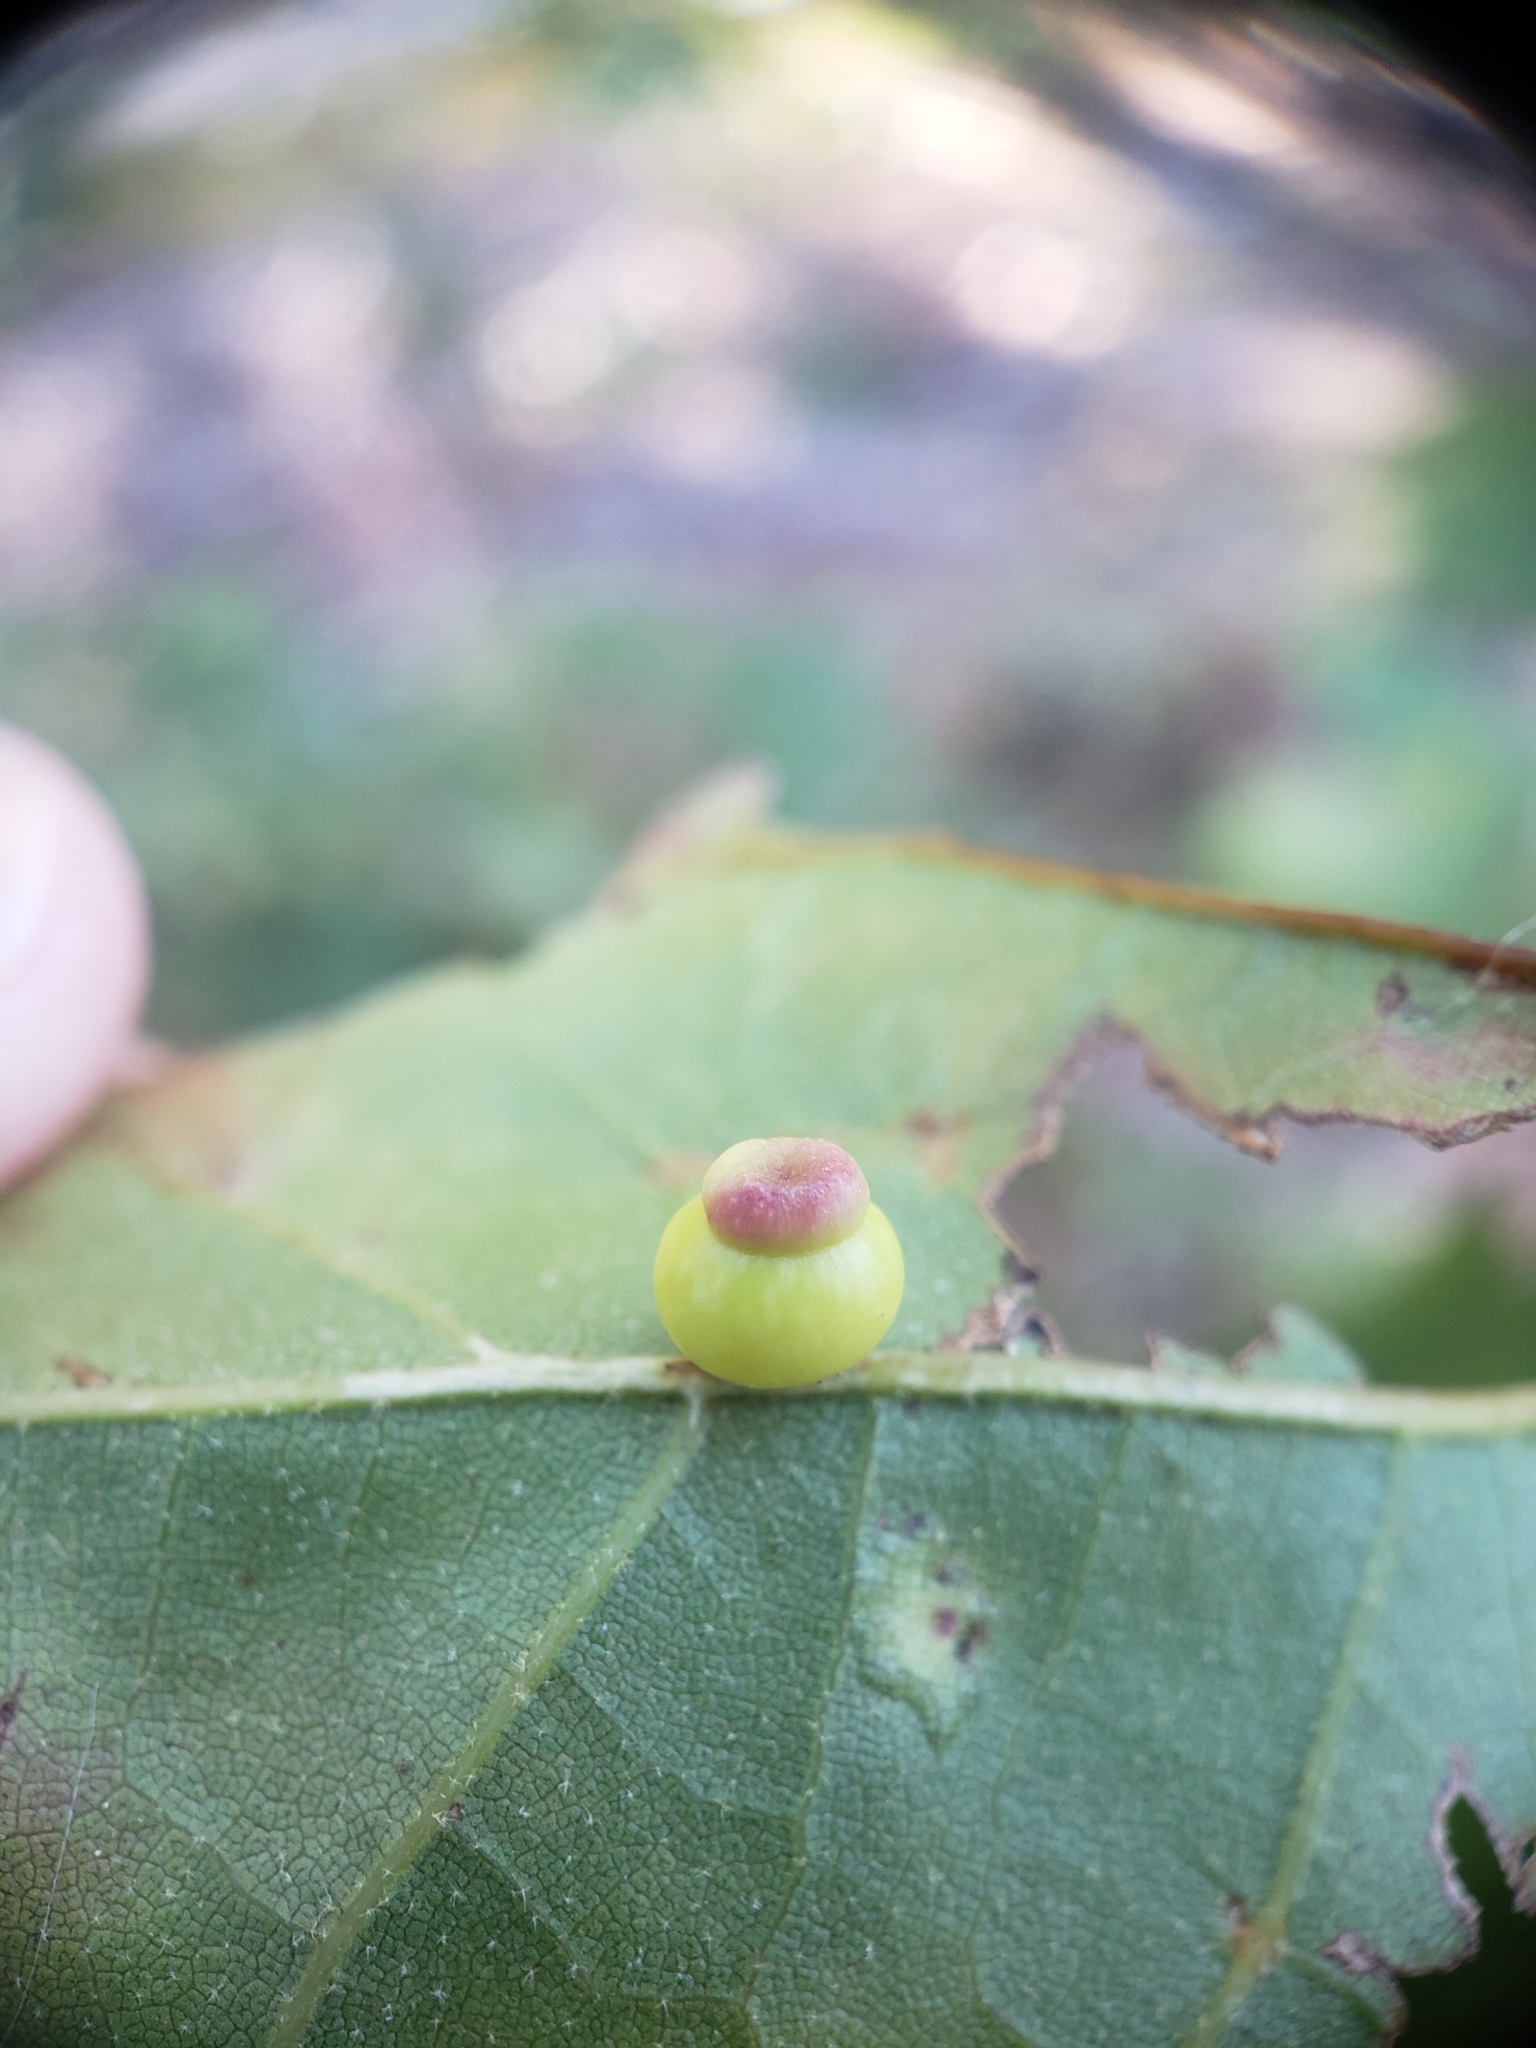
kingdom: Animalia
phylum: Arthropoda
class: Insecta
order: Hymenoptera
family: Cynipidae
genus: Kokkocynips
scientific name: Kokkocynips rileyi
